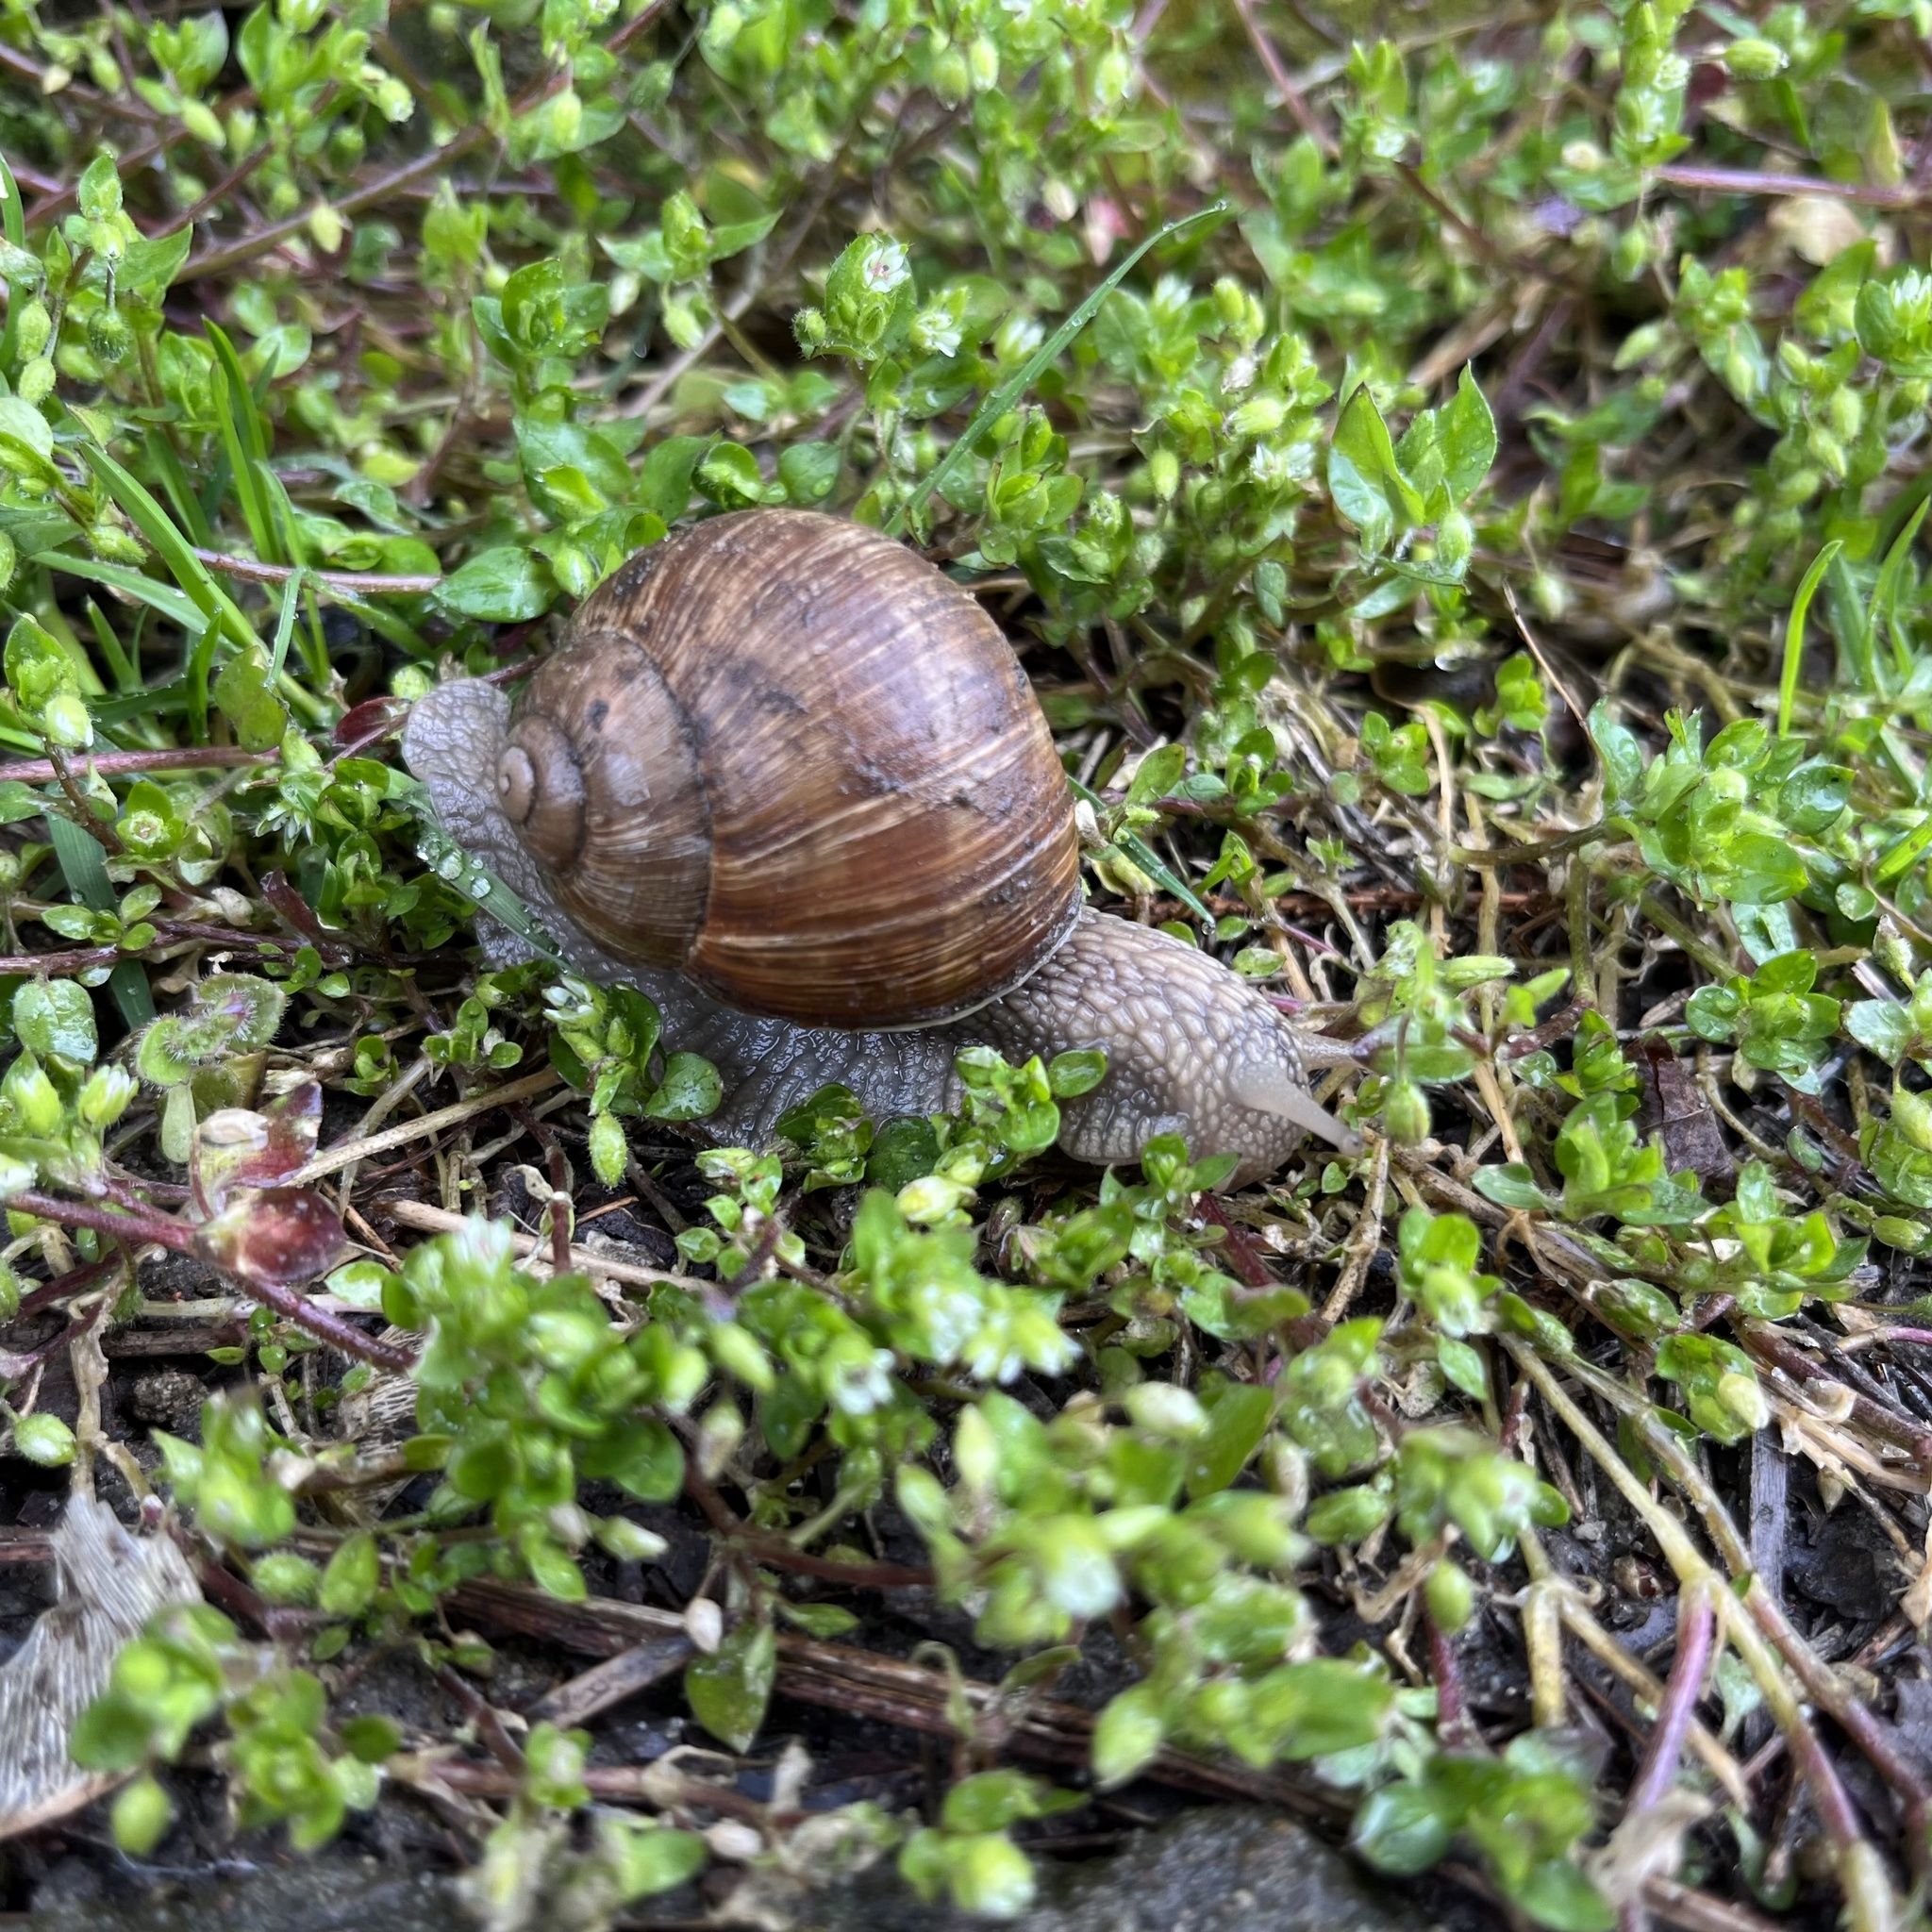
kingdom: Animalia
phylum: Mollusca
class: Gastropoda
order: Stylommatophora
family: Helicidae
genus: Helix
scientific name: Helix pomatia
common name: Roman snail
